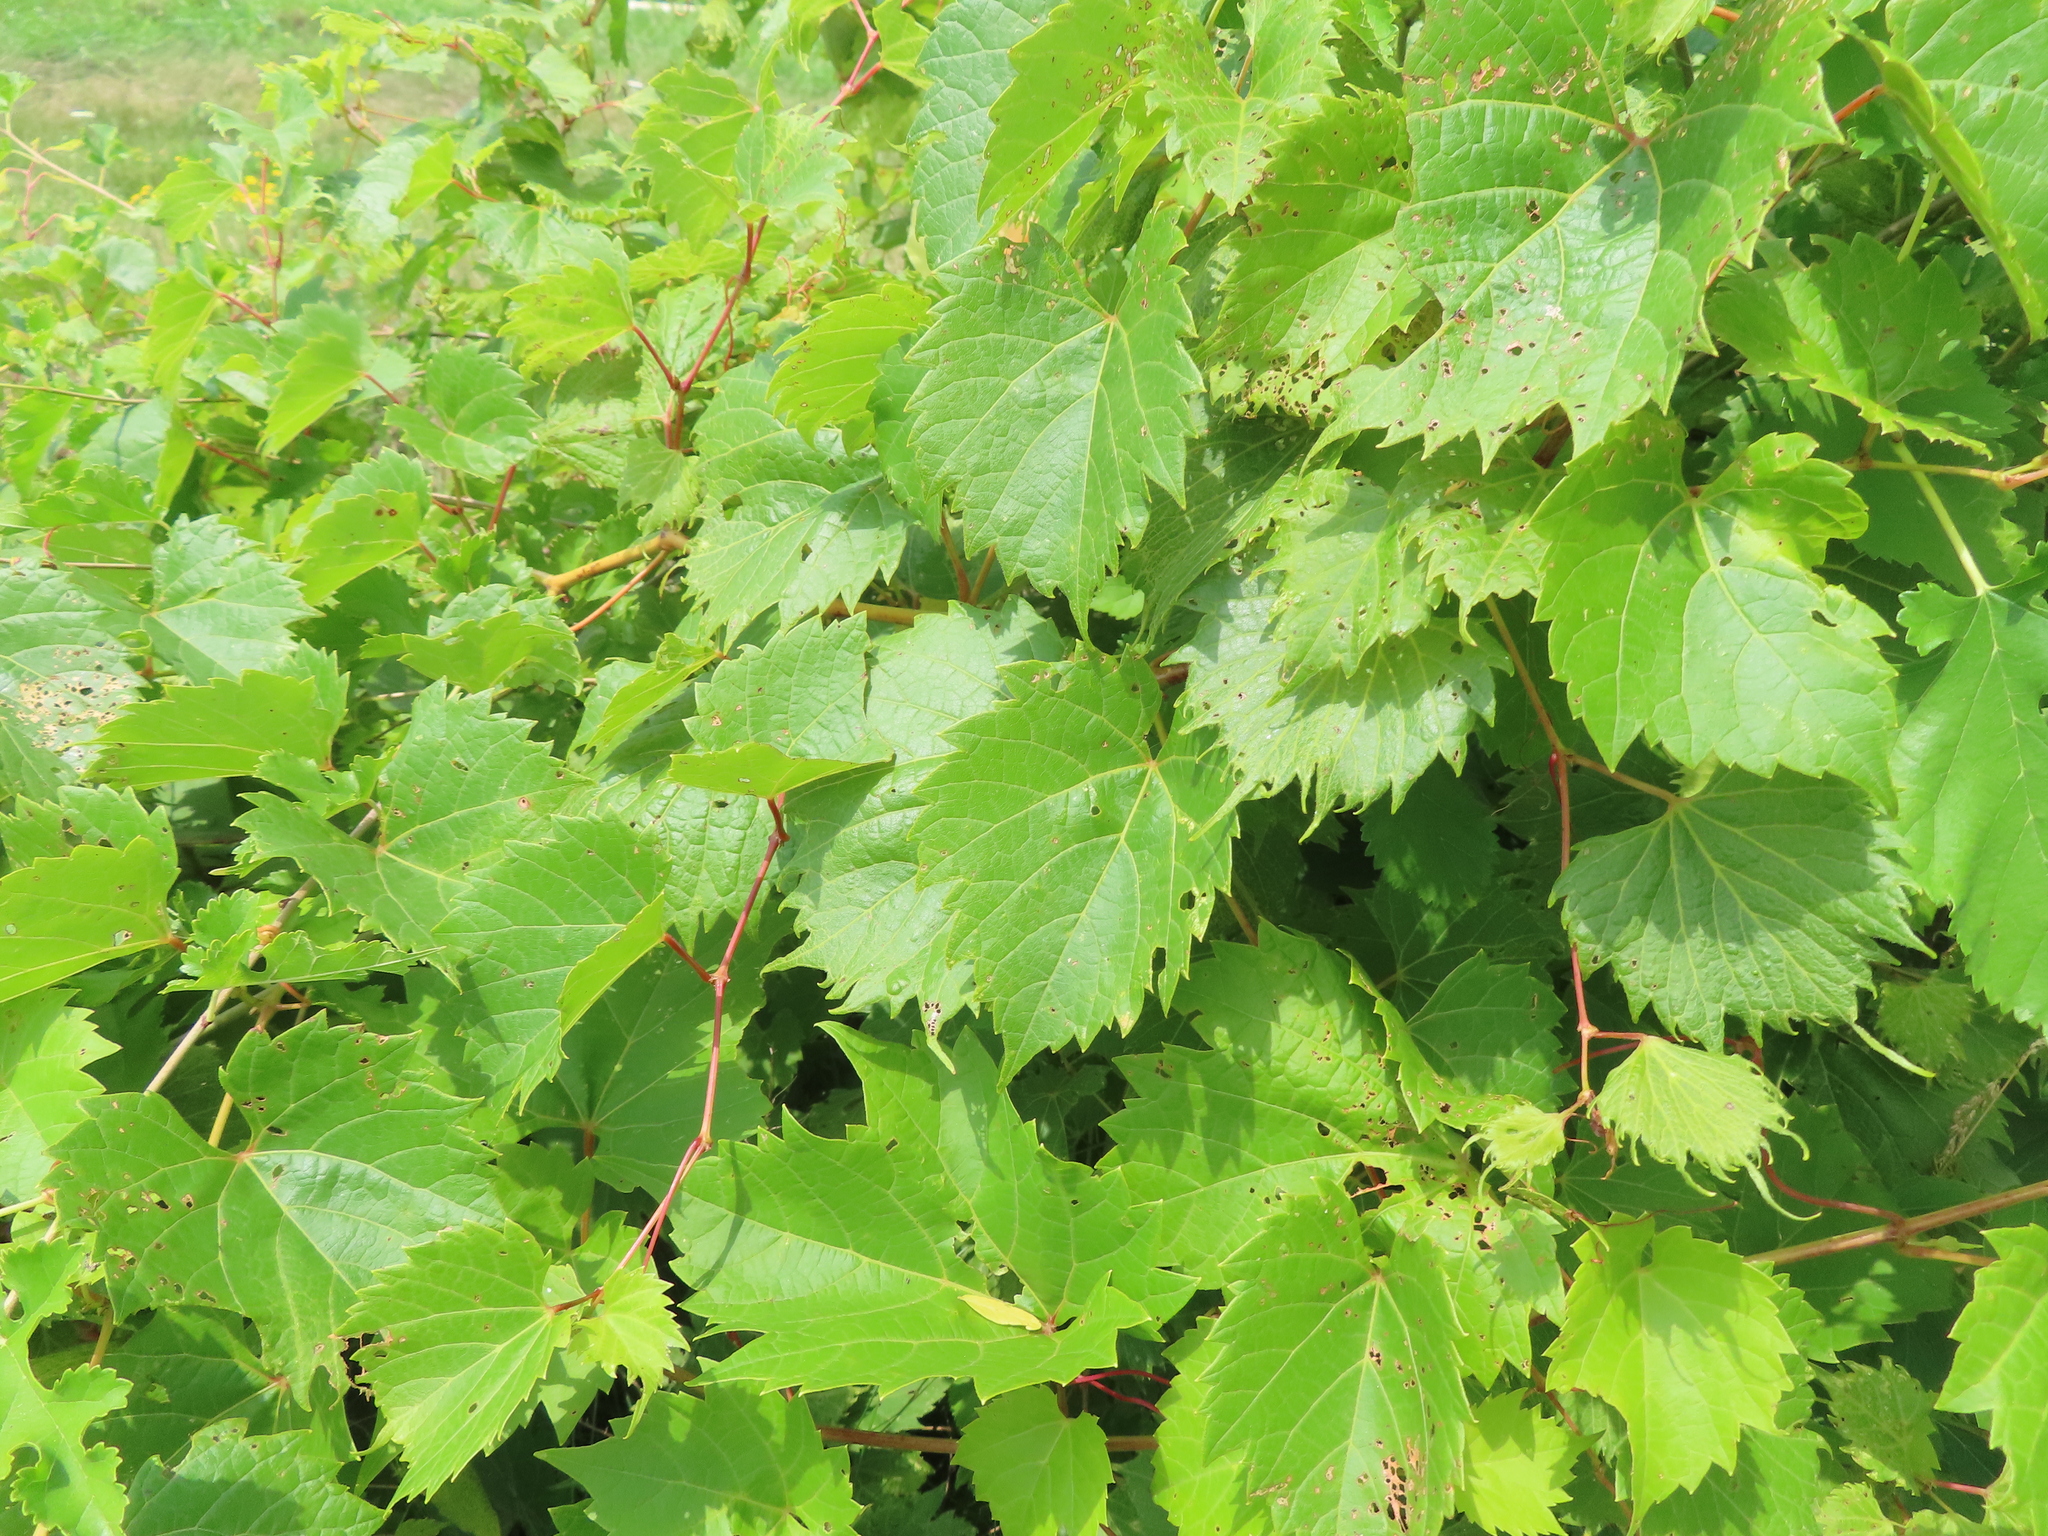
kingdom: Plantae
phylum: Tracheophyta
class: Magnoliopsida
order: Vitales
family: Vitaceae
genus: Vitis
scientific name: Vitis riparia
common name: Frost grape
